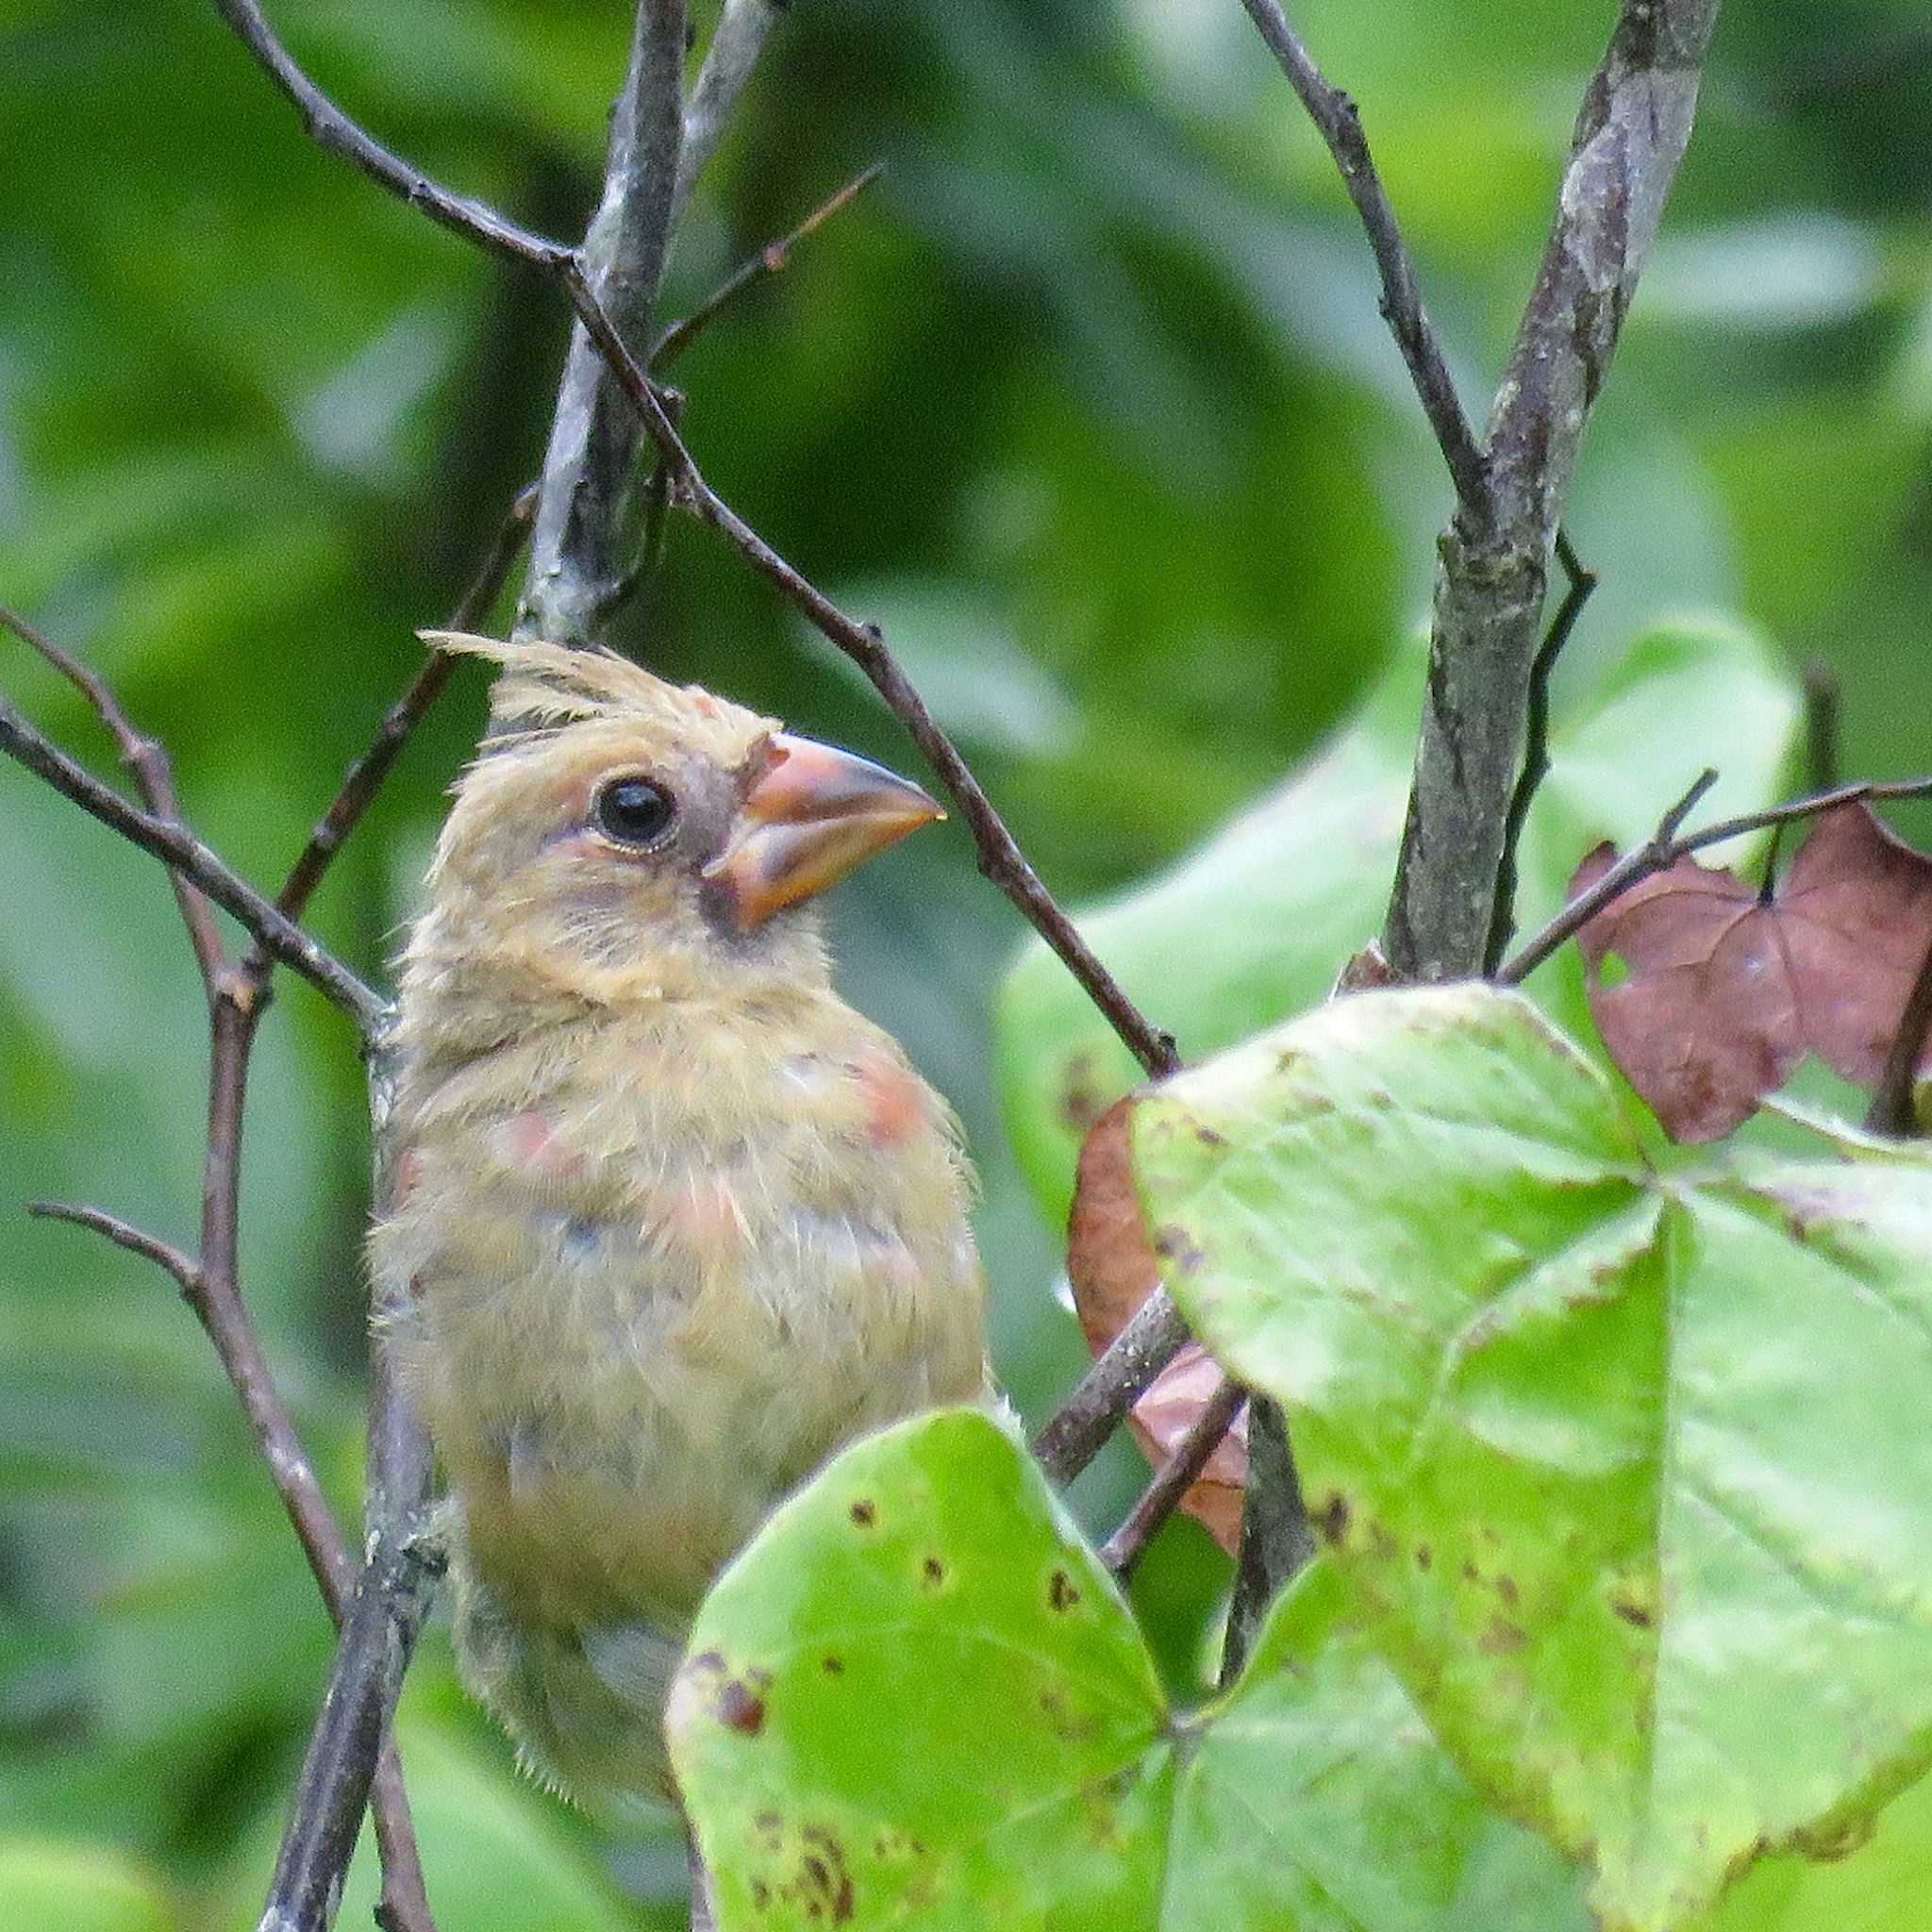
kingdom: Animalia
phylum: Chordata
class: Aves
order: Passeriformes
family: Cardinalidae
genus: Cardinalis
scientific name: Cardinalis cardinalis
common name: Northern cardinal
